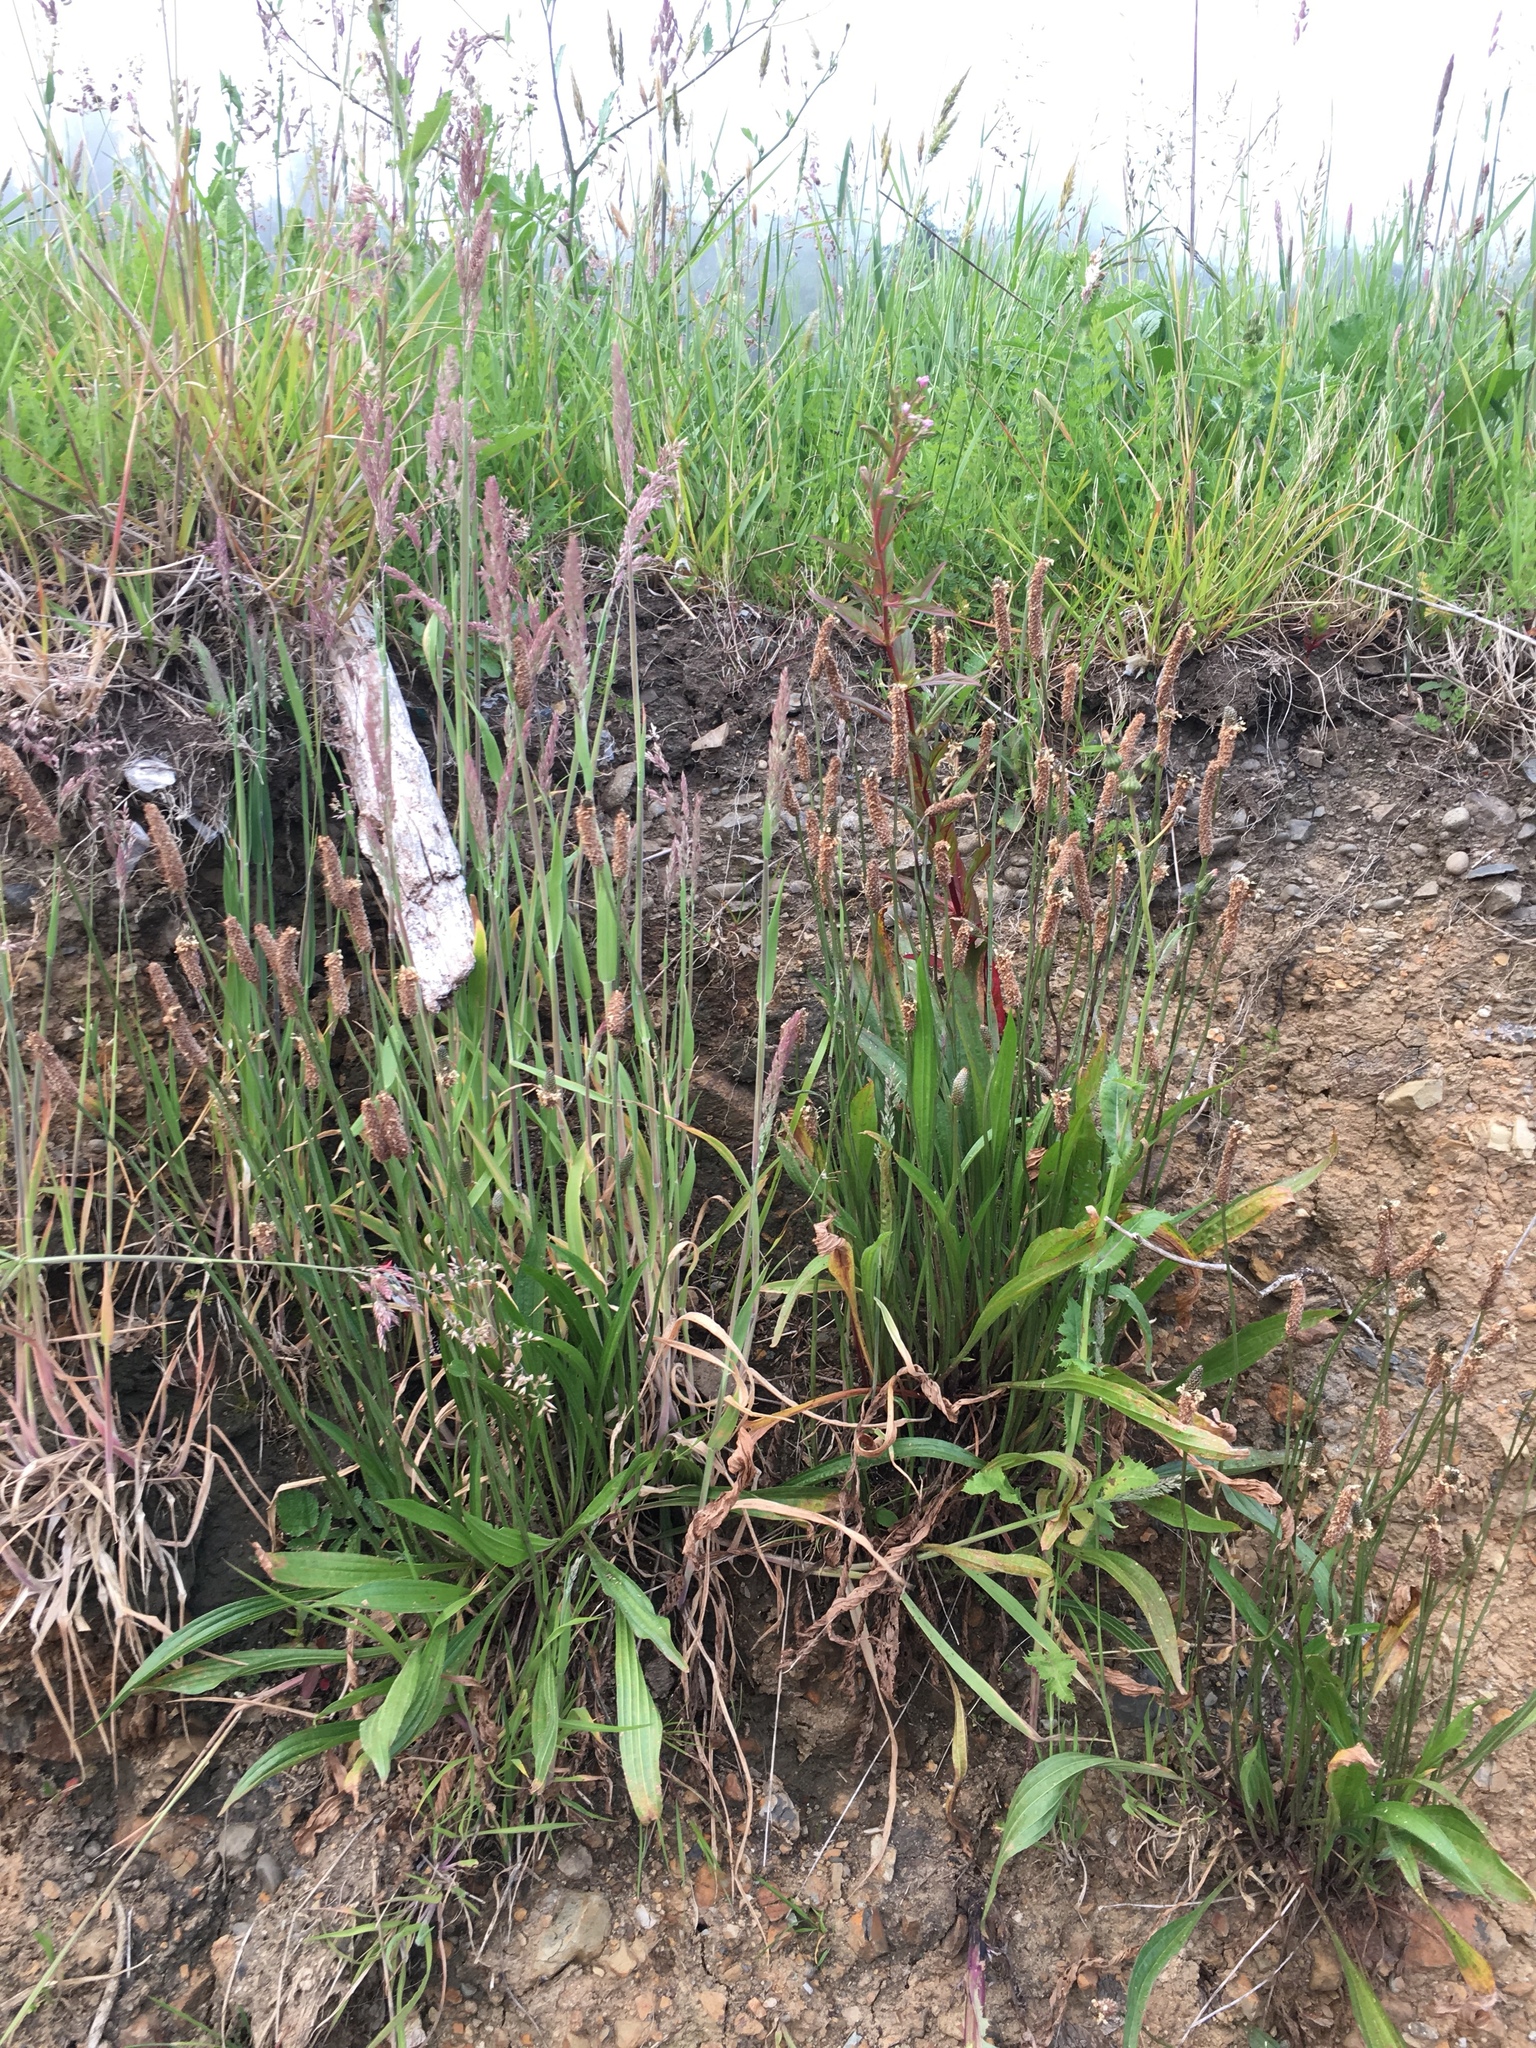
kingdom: Plantae
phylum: Tracheophyta
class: Magnoliopsida
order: Lamiales
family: Plantaginaceae
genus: Plantago
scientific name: Plantago lanceolata
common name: Ribwort plantain
